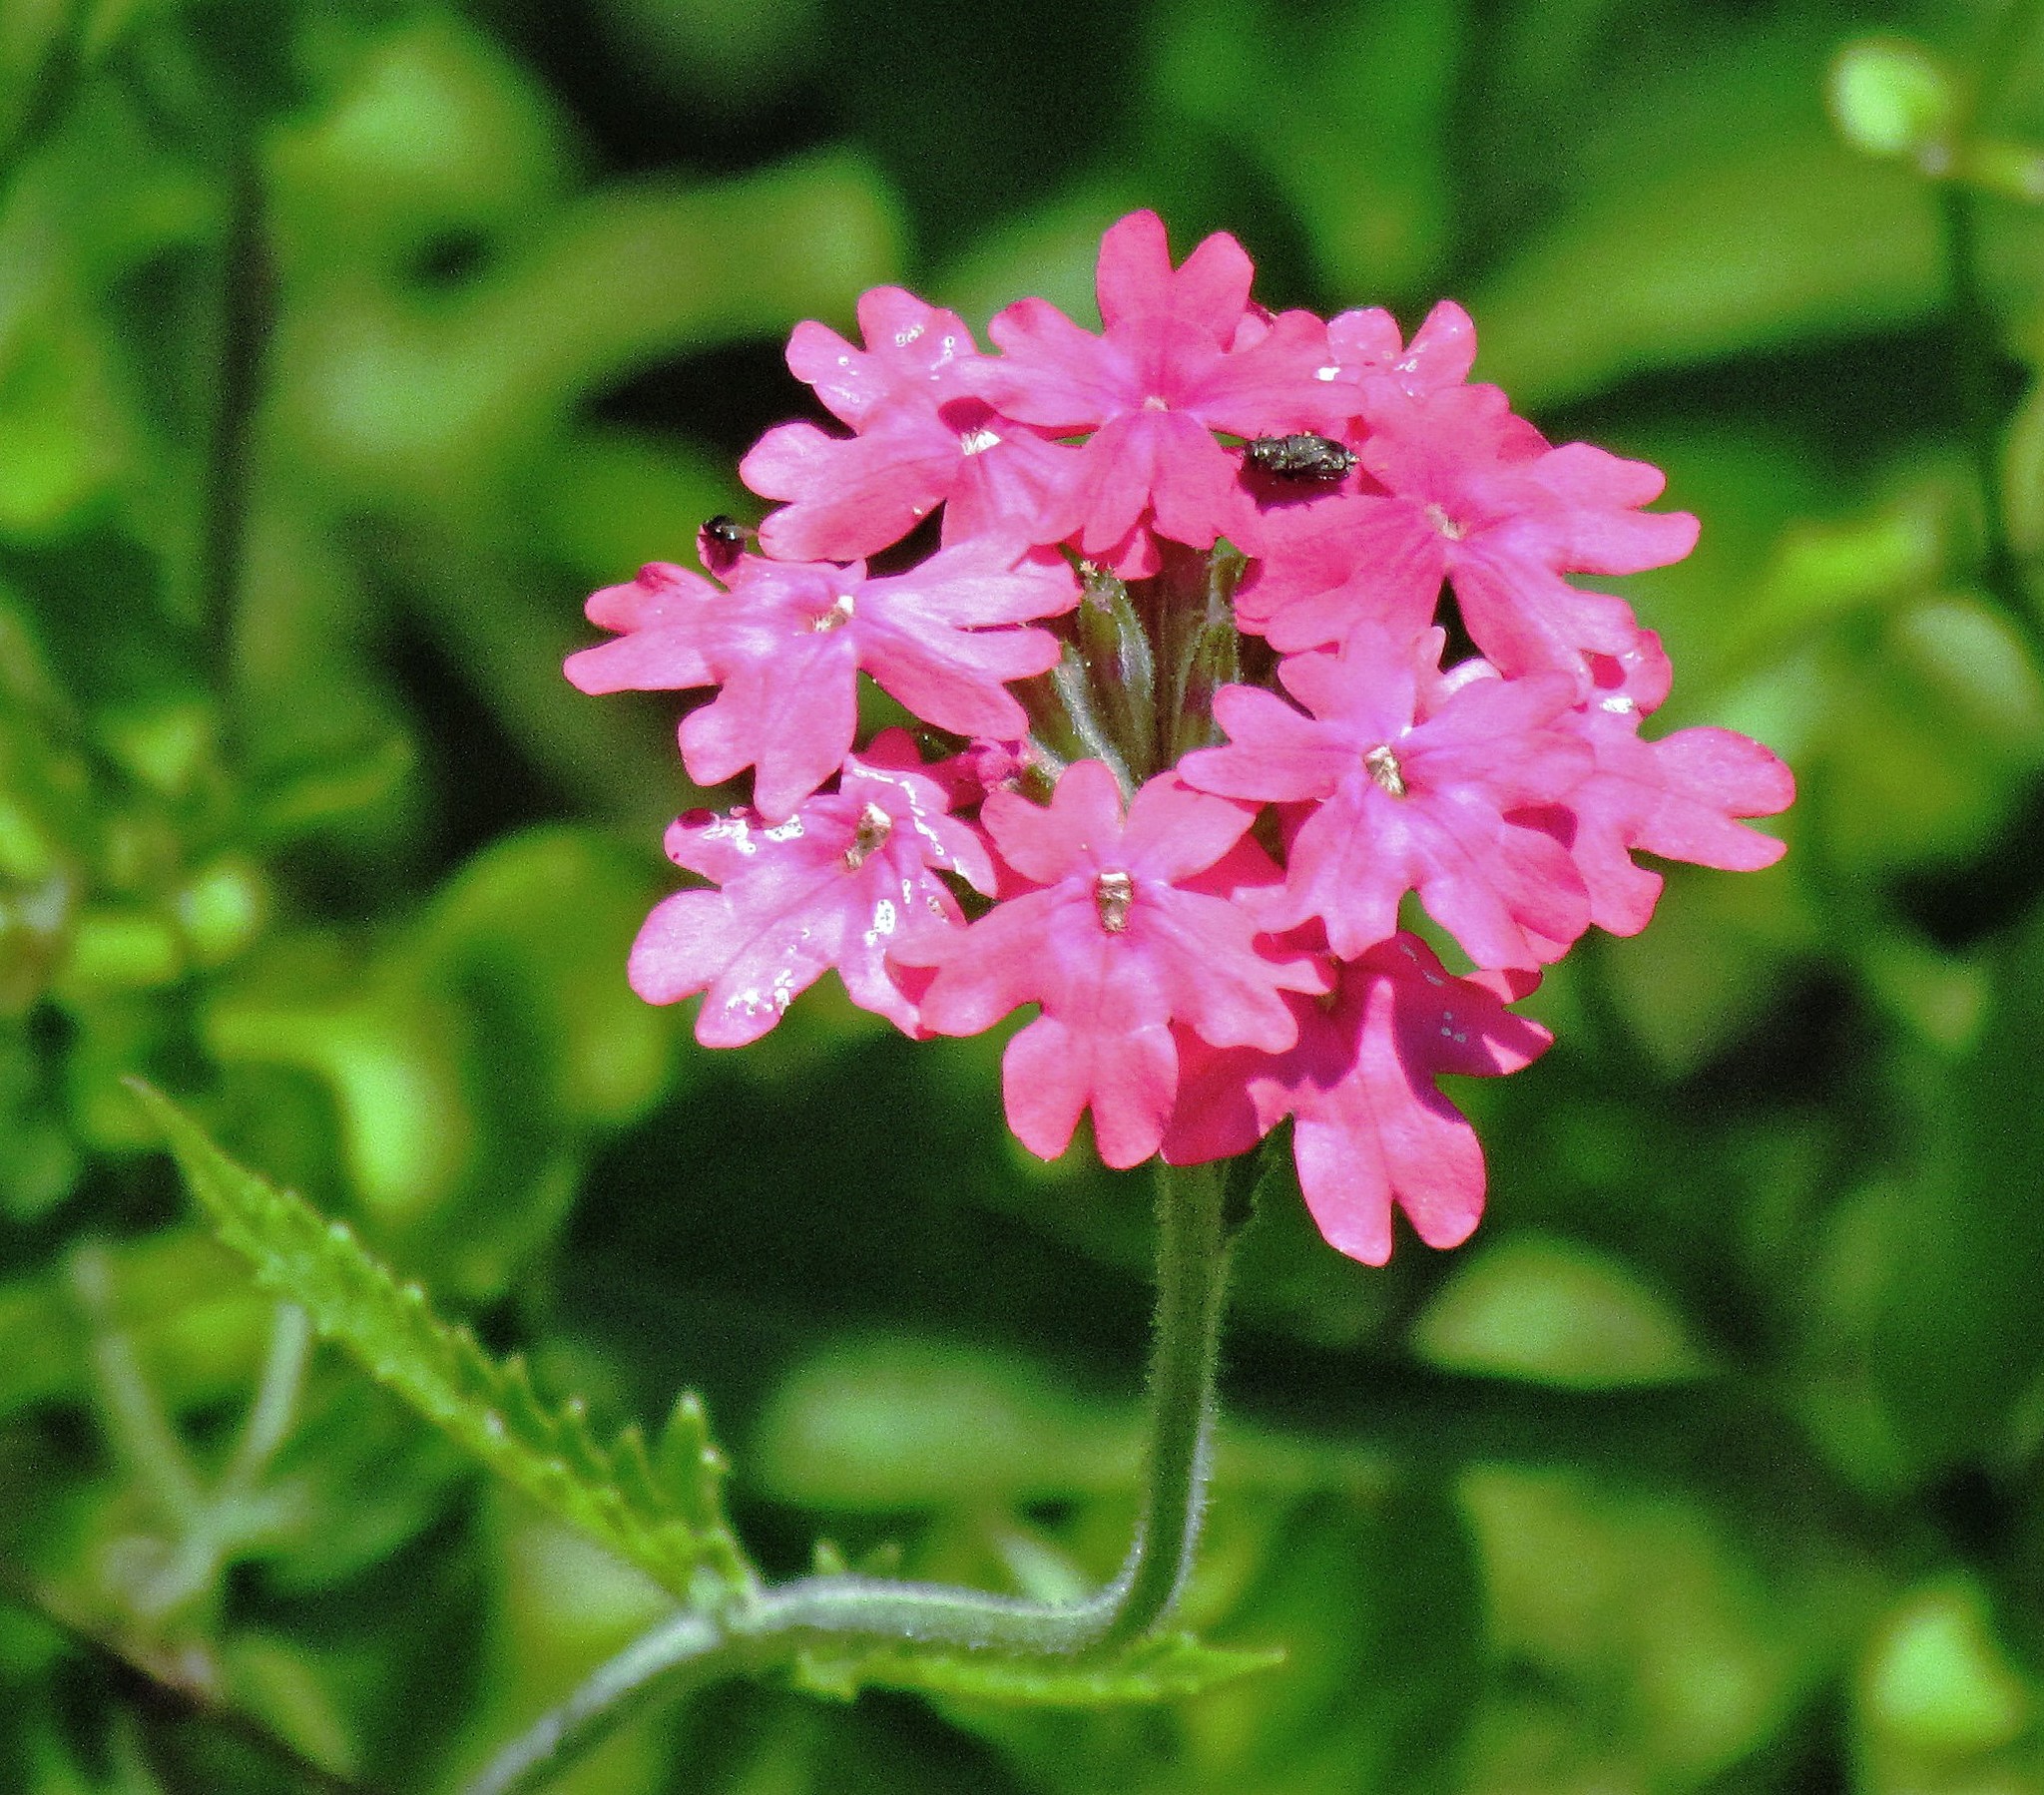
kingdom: Plantae
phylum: Tracheophyta
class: Magnoliopsida
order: Lamiales
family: Verbenaceae
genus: Verbena
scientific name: Verbena tweedieana
